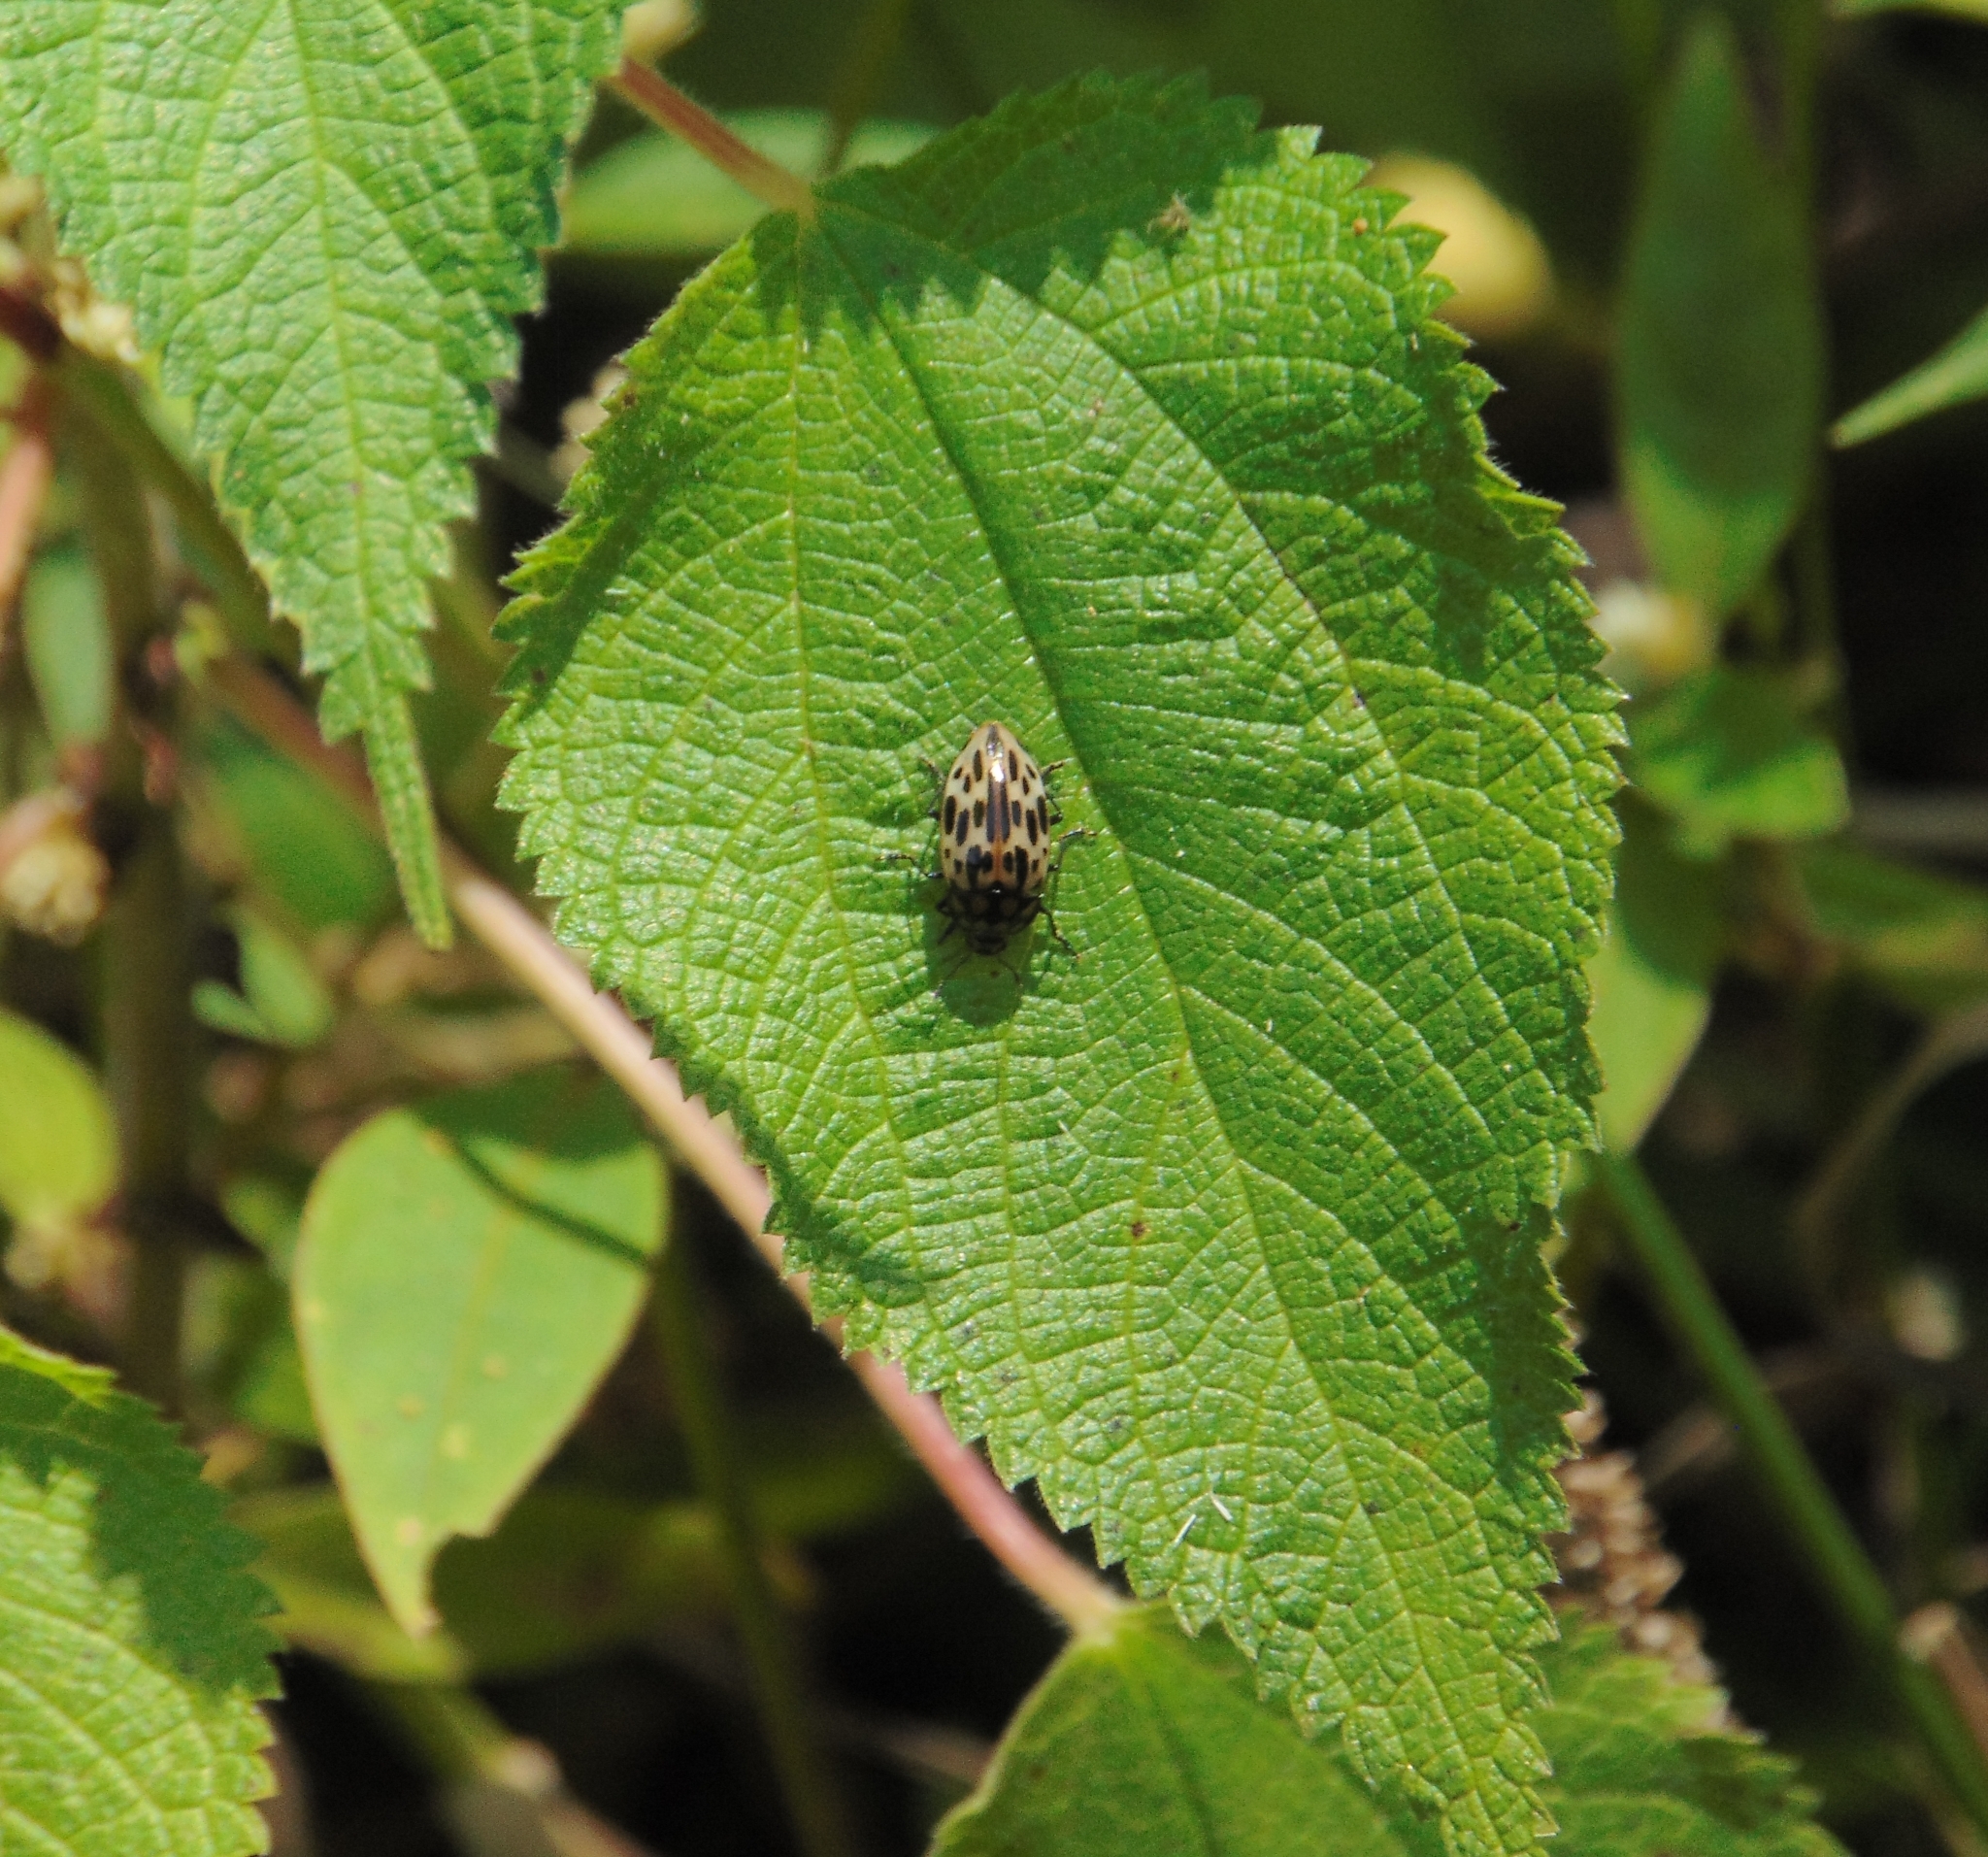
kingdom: Animalia
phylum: Arthropoda
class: Insecta
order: Coleoptera
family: Erotylidae
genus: Iphiclus
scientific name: Iphiclus
